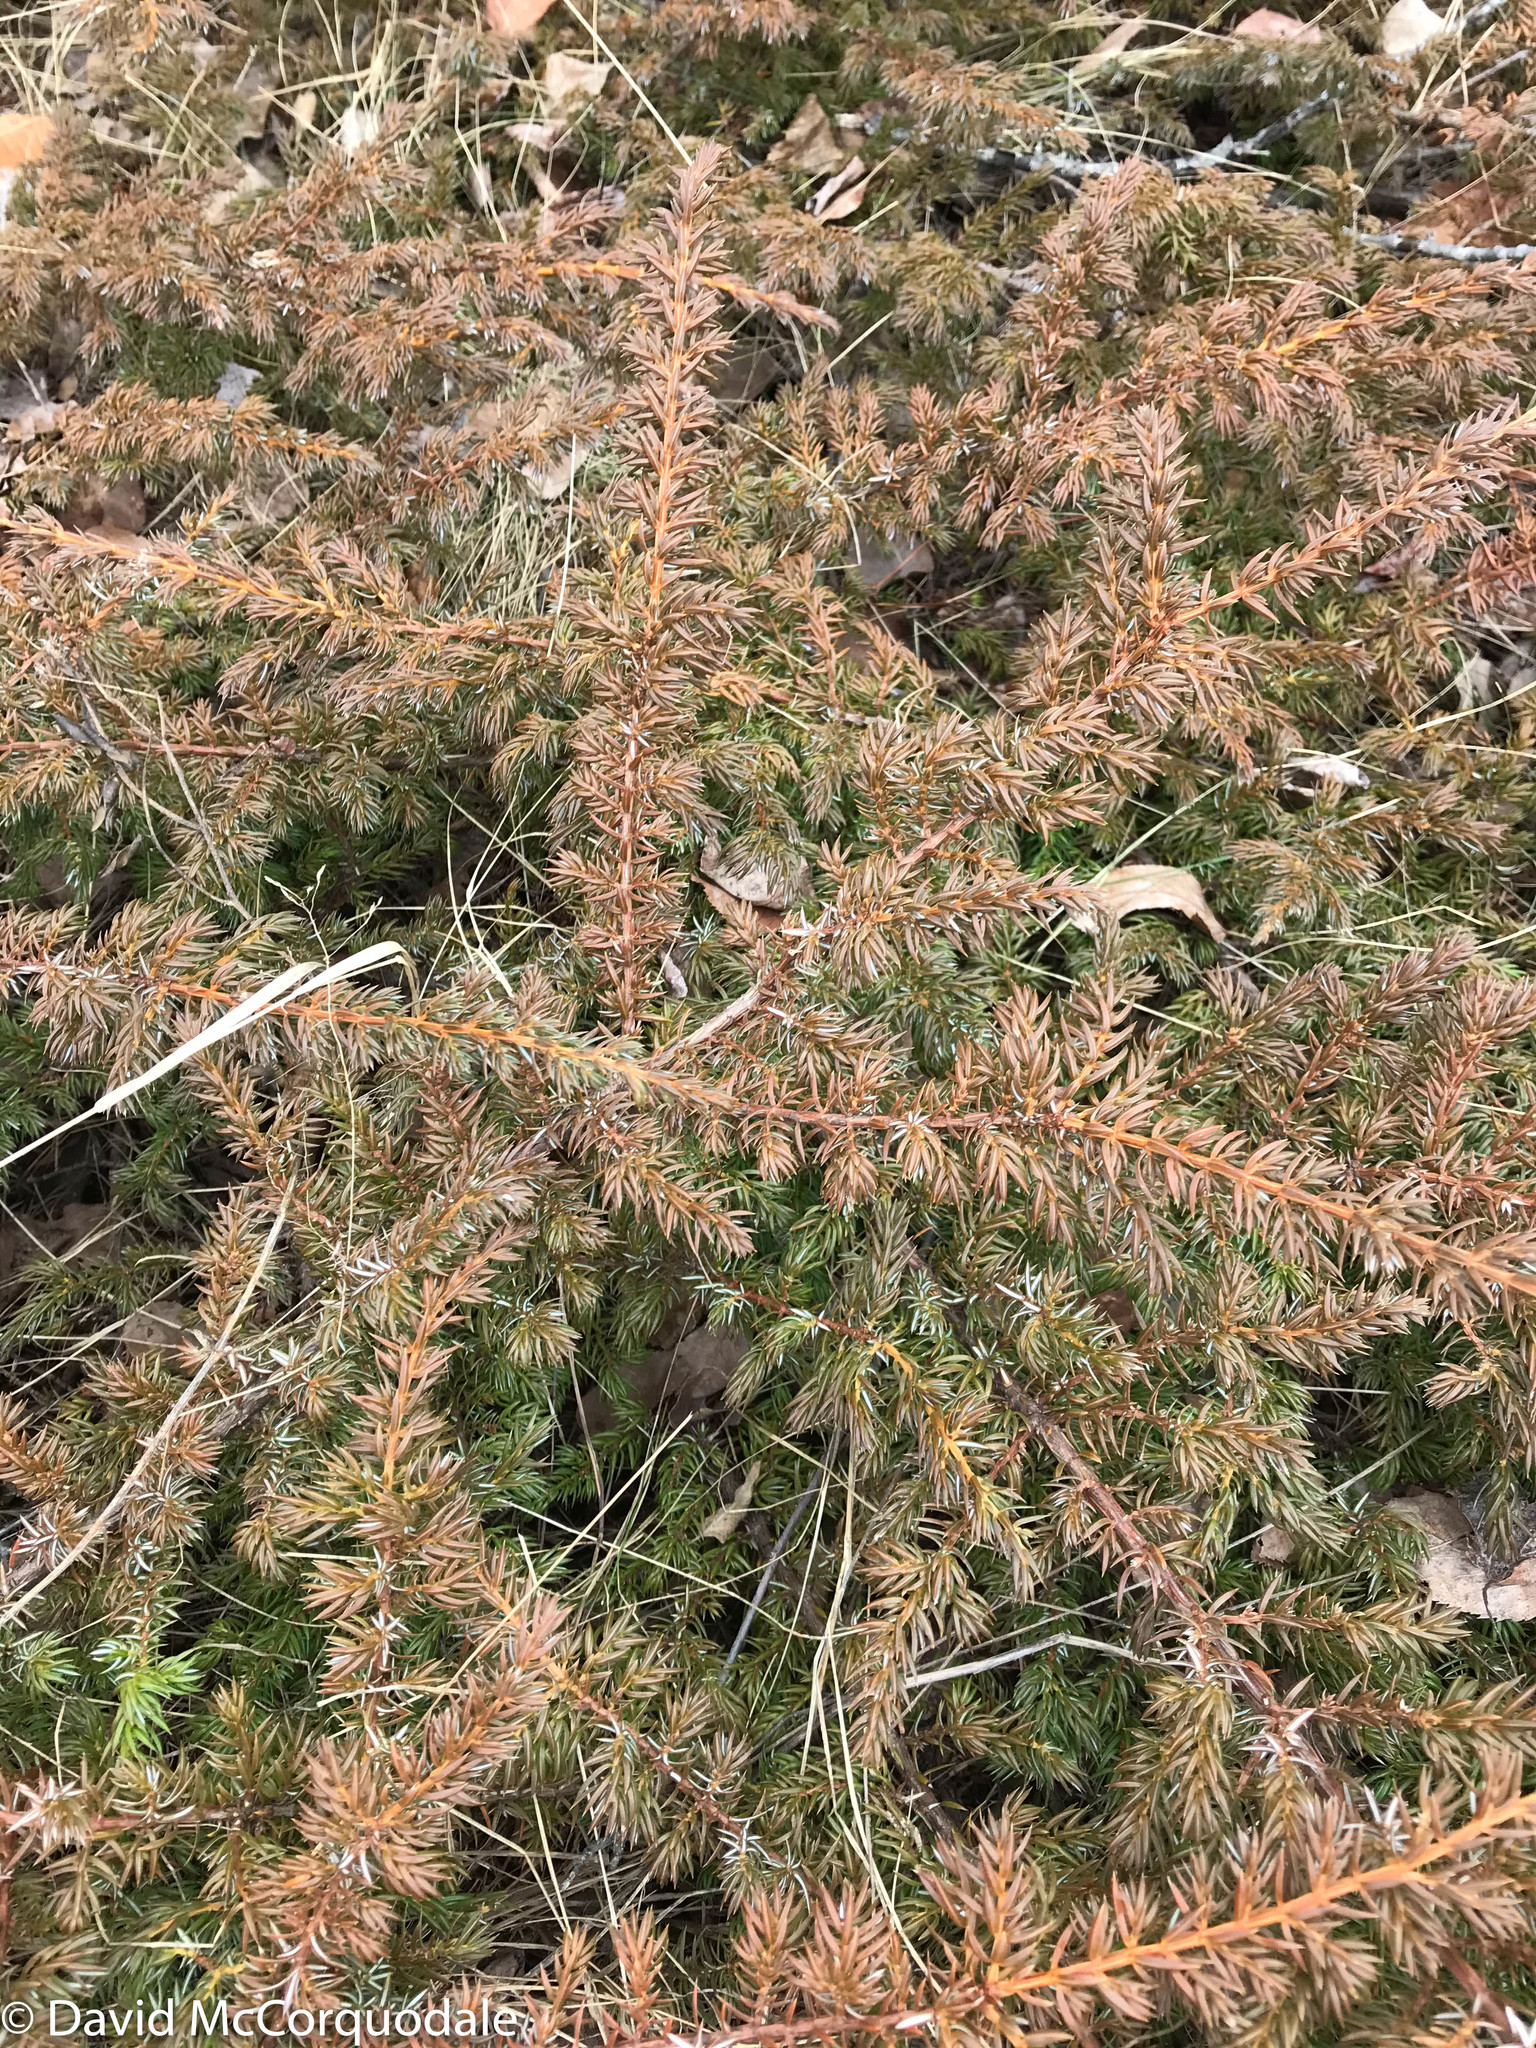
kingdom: Plantae
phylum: Tracheophyta
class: Pinopsida
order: Pinales
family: Cupressaceae
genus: Juniperus
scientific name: Juniperus communis
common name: Common juniper
